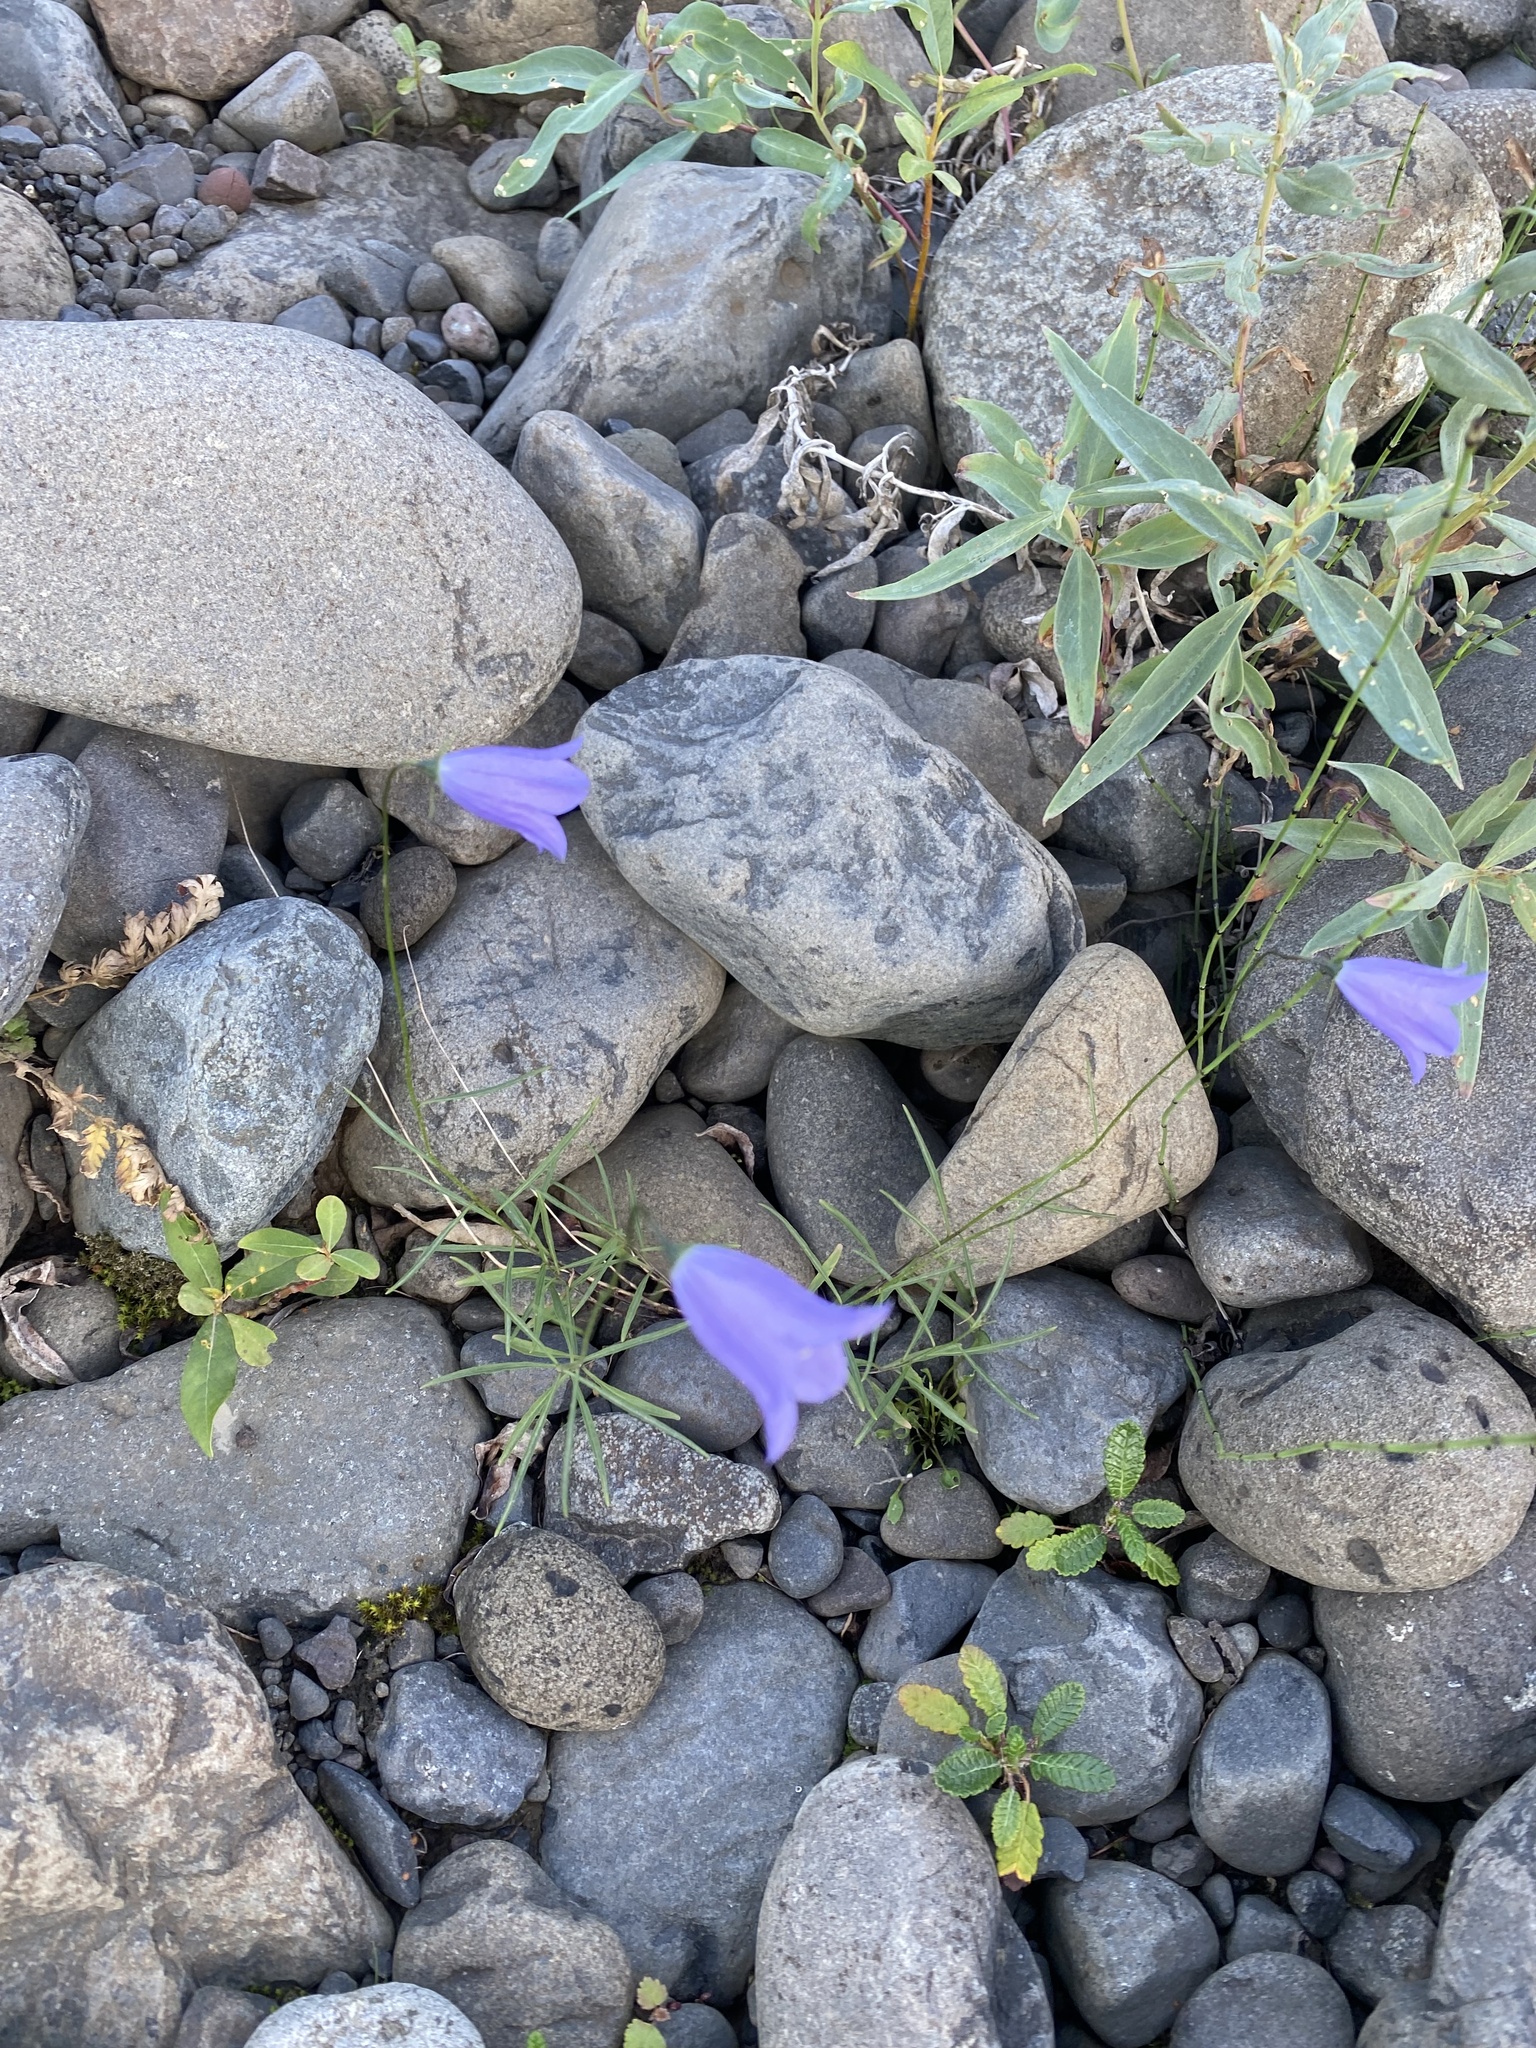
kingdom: Plantae
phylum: Tracheophyta
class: Magnoliopsida
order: Asterales
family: Campanulaceae
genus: Campanula
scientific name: Campanula rotundifolia
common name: Harebell
